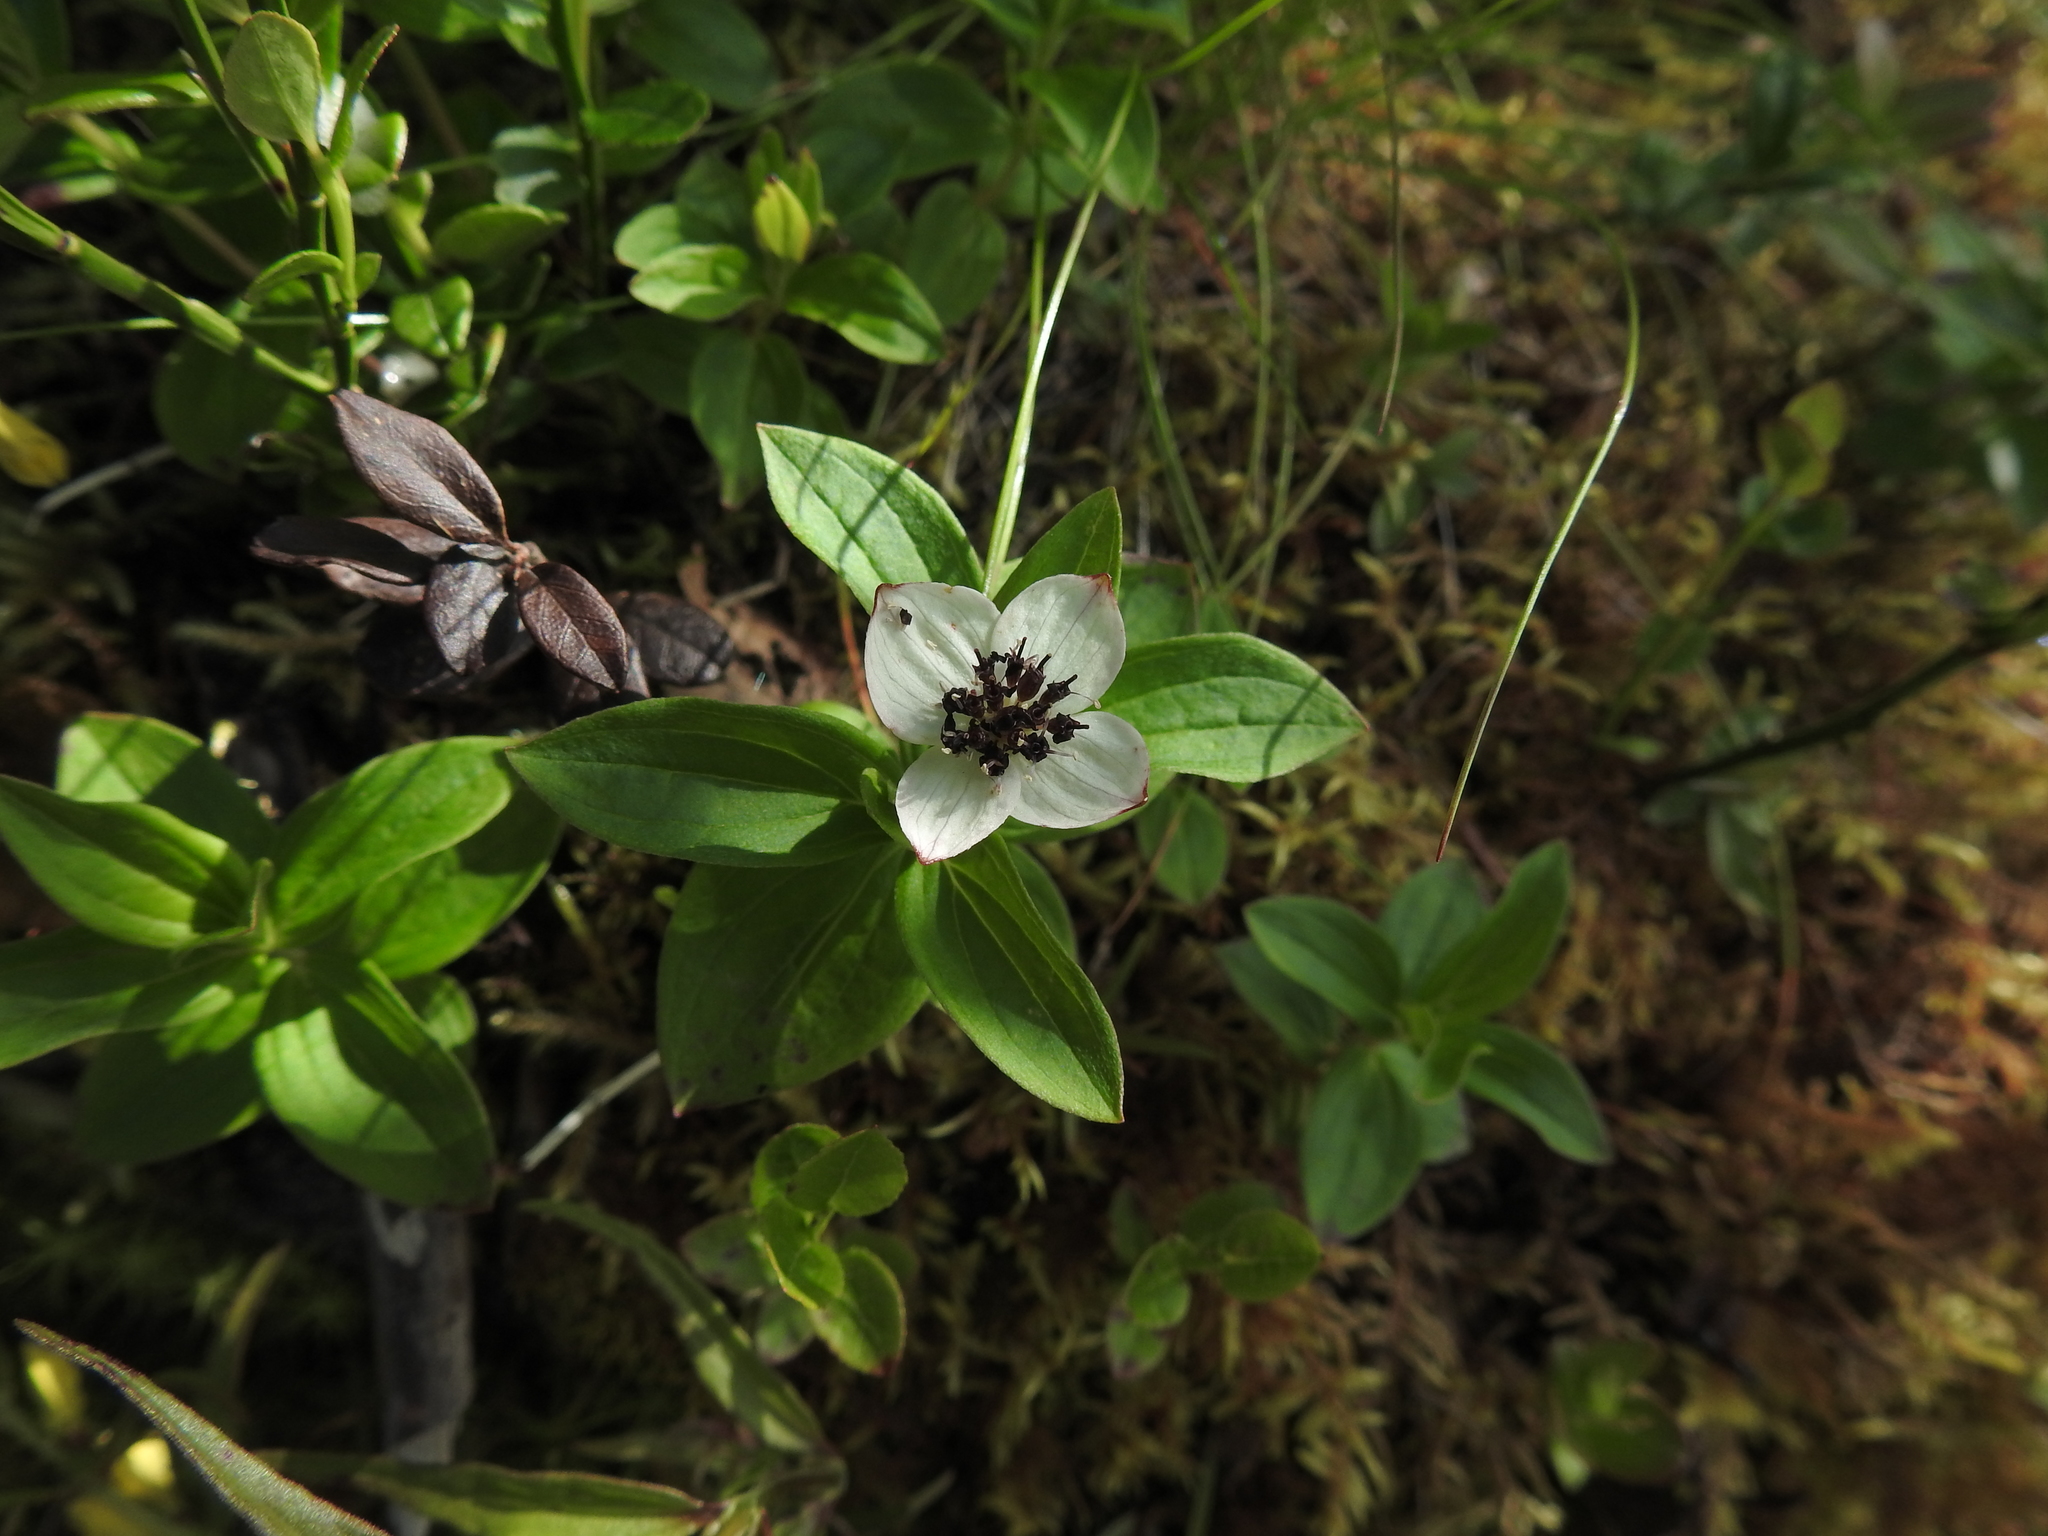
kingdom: Plantae
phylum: Tracheophyta
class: Magnoliopsida
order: Cornales
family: Cornaceae
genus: Cornus
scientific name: Cornus suecica
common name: Dwarf cornel
